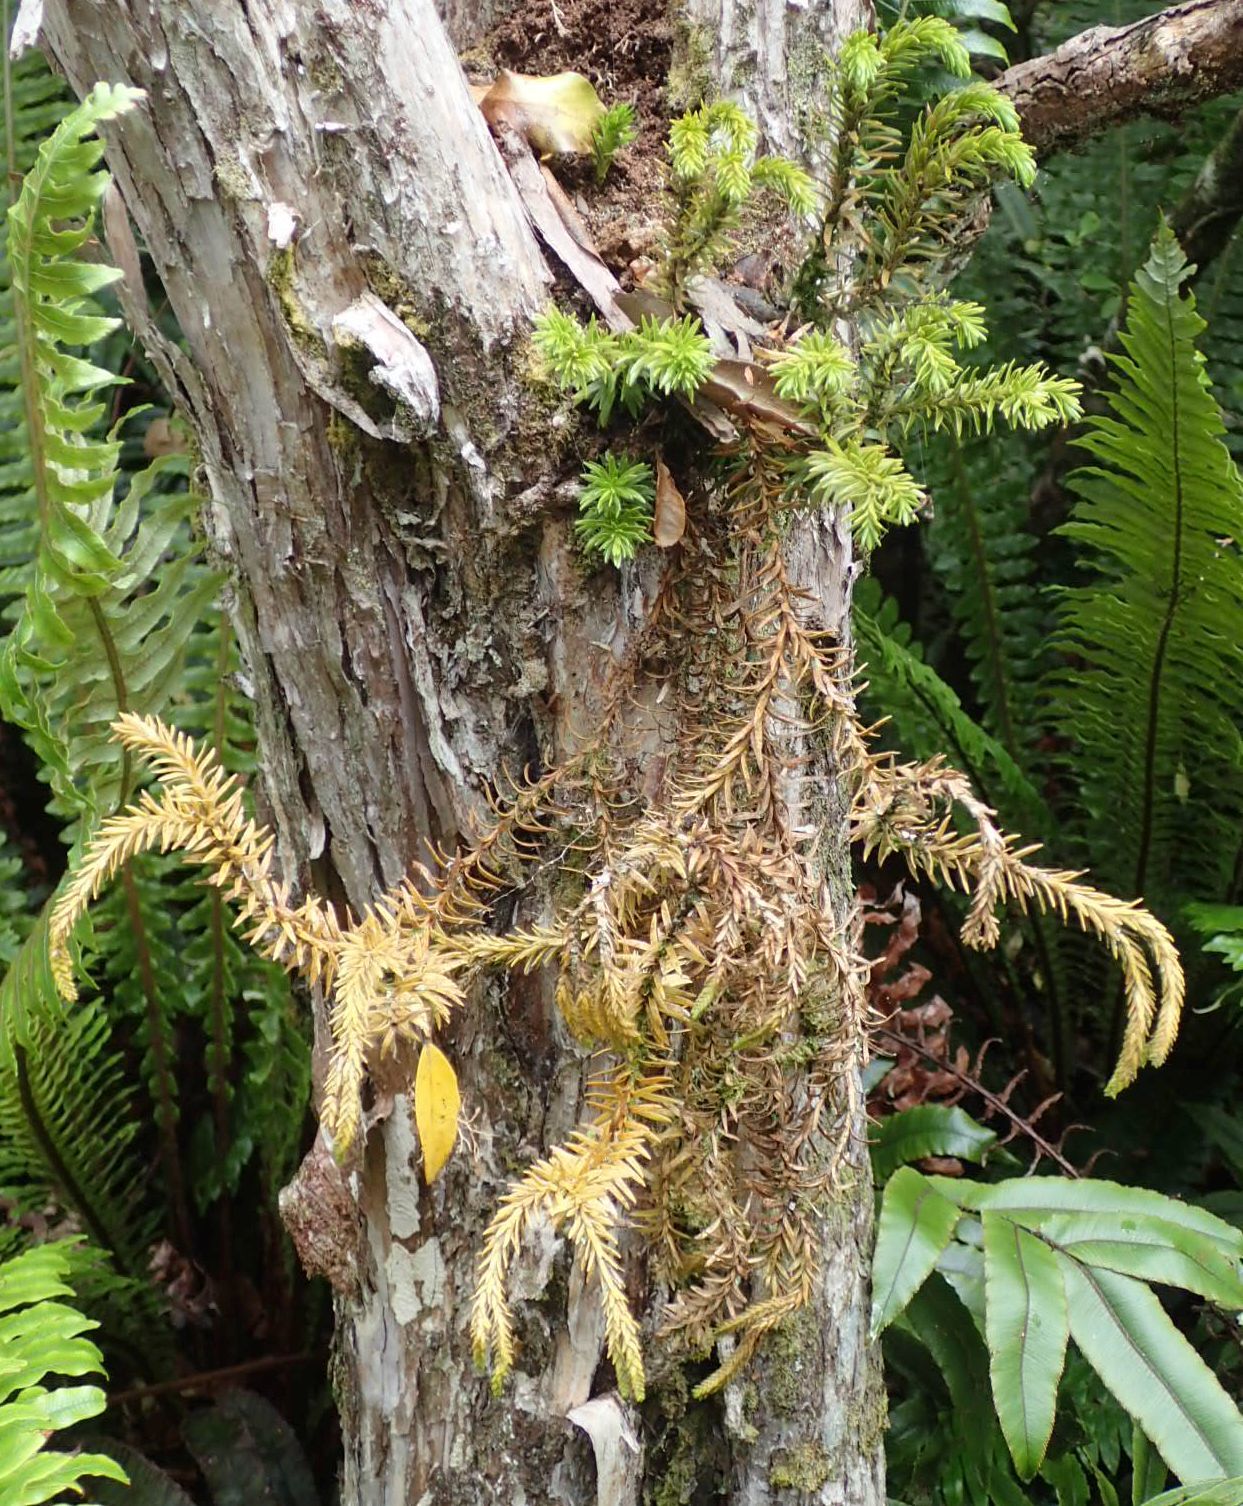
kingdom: Plantae
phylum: Tracheophyta
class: Lycopodiopsida
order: Lycopodiales
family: Lycopodiaceae
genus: Phlegmariurus
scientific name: Phlegmariurus varius
